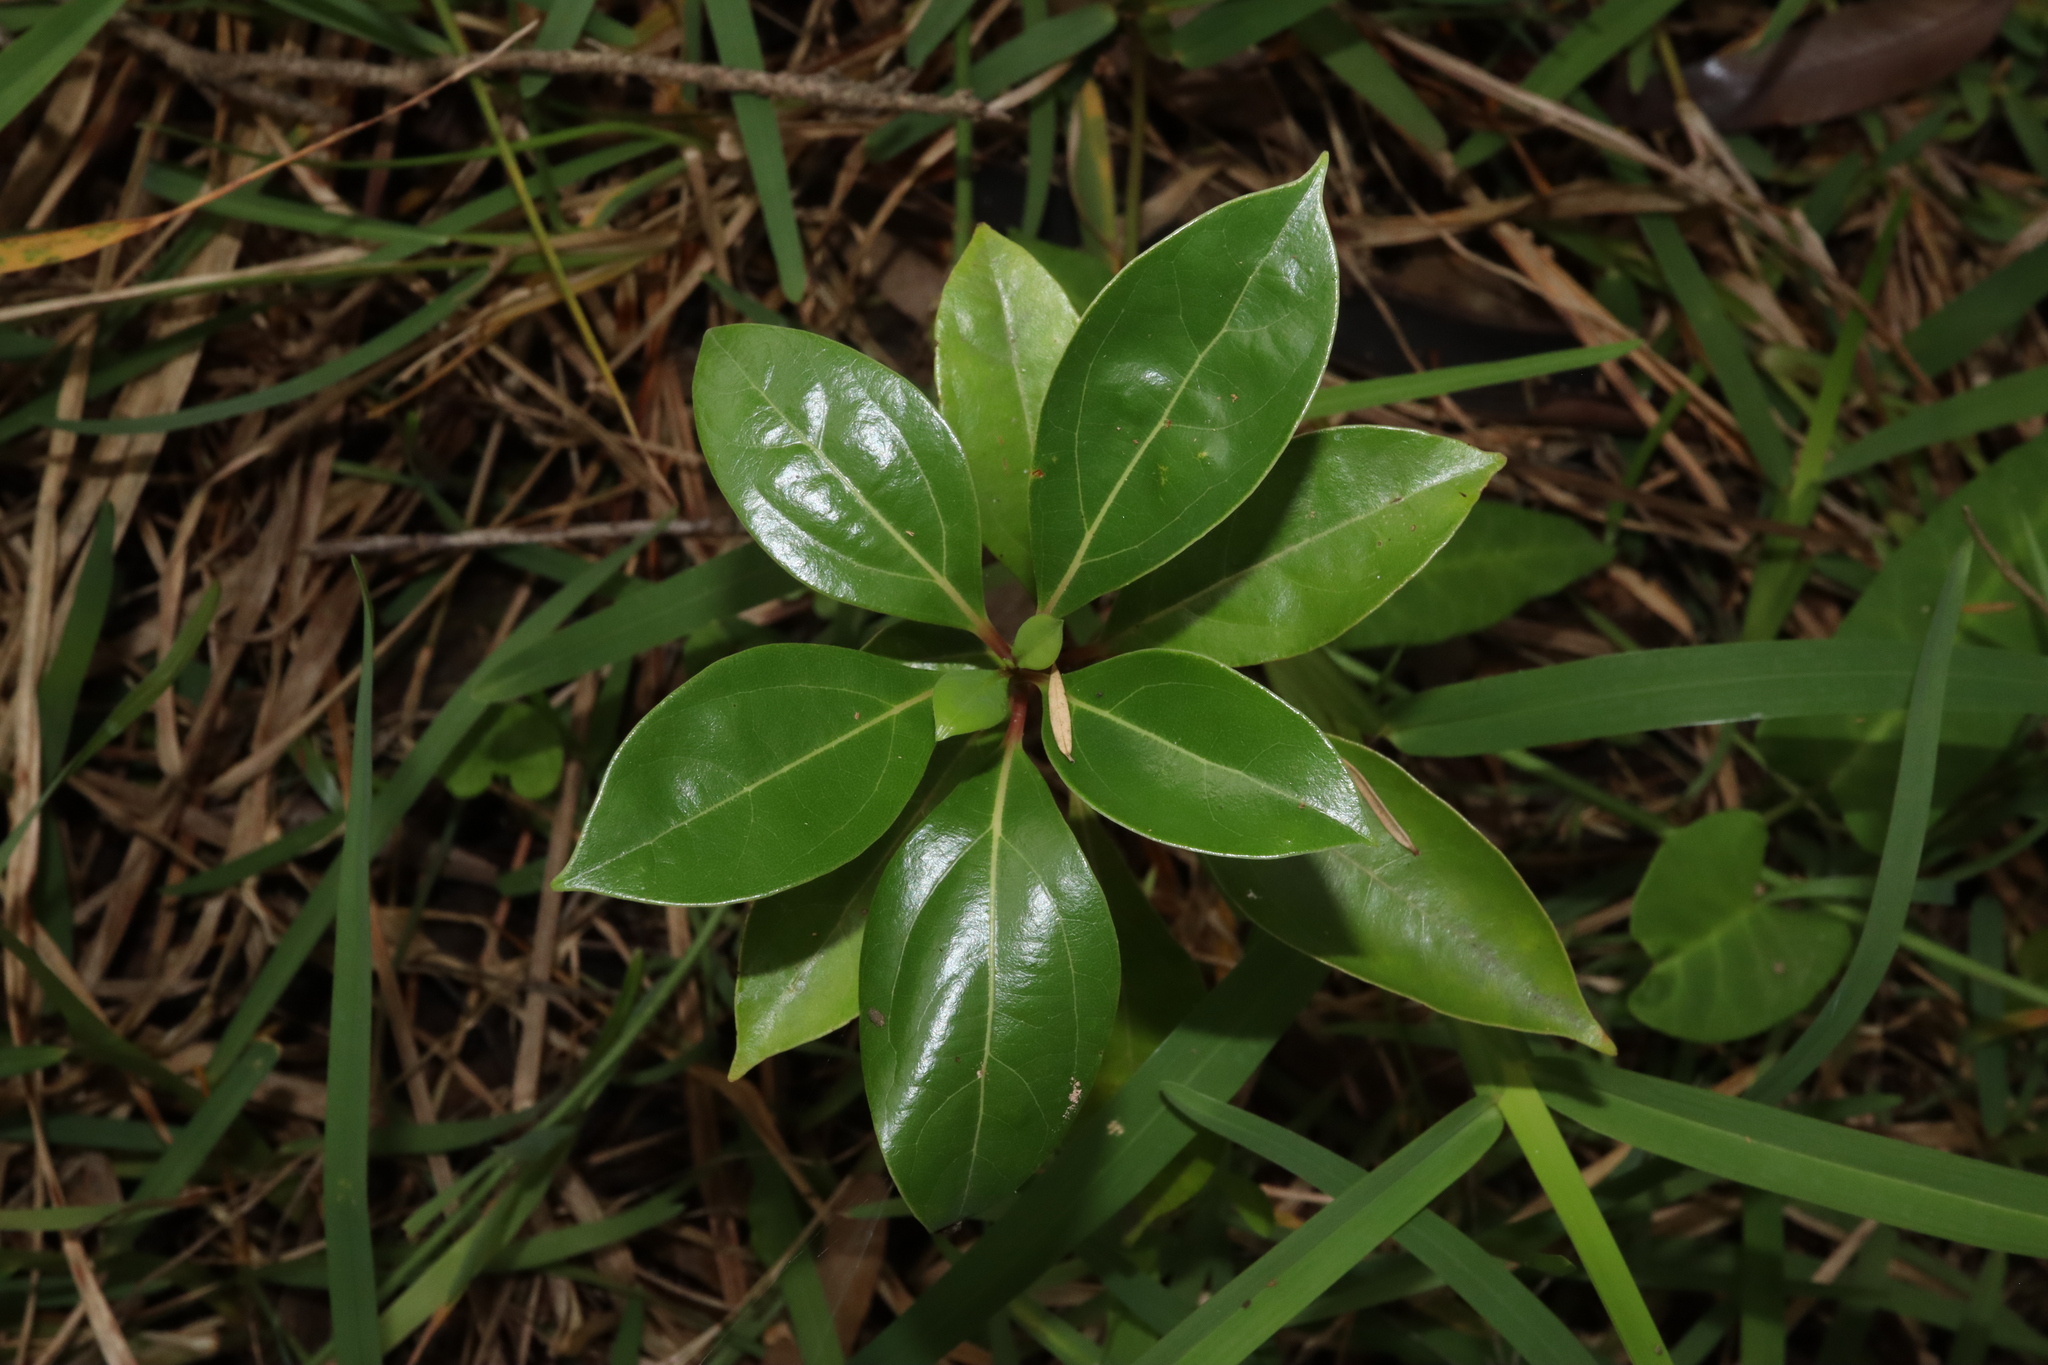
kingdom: Plantae
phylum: Tracheophyta
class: Magnoliopsida
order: Laurales
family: Lauraceae
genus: Cinnamomum
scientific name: Cinnamomum camphora
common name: Camphortree
